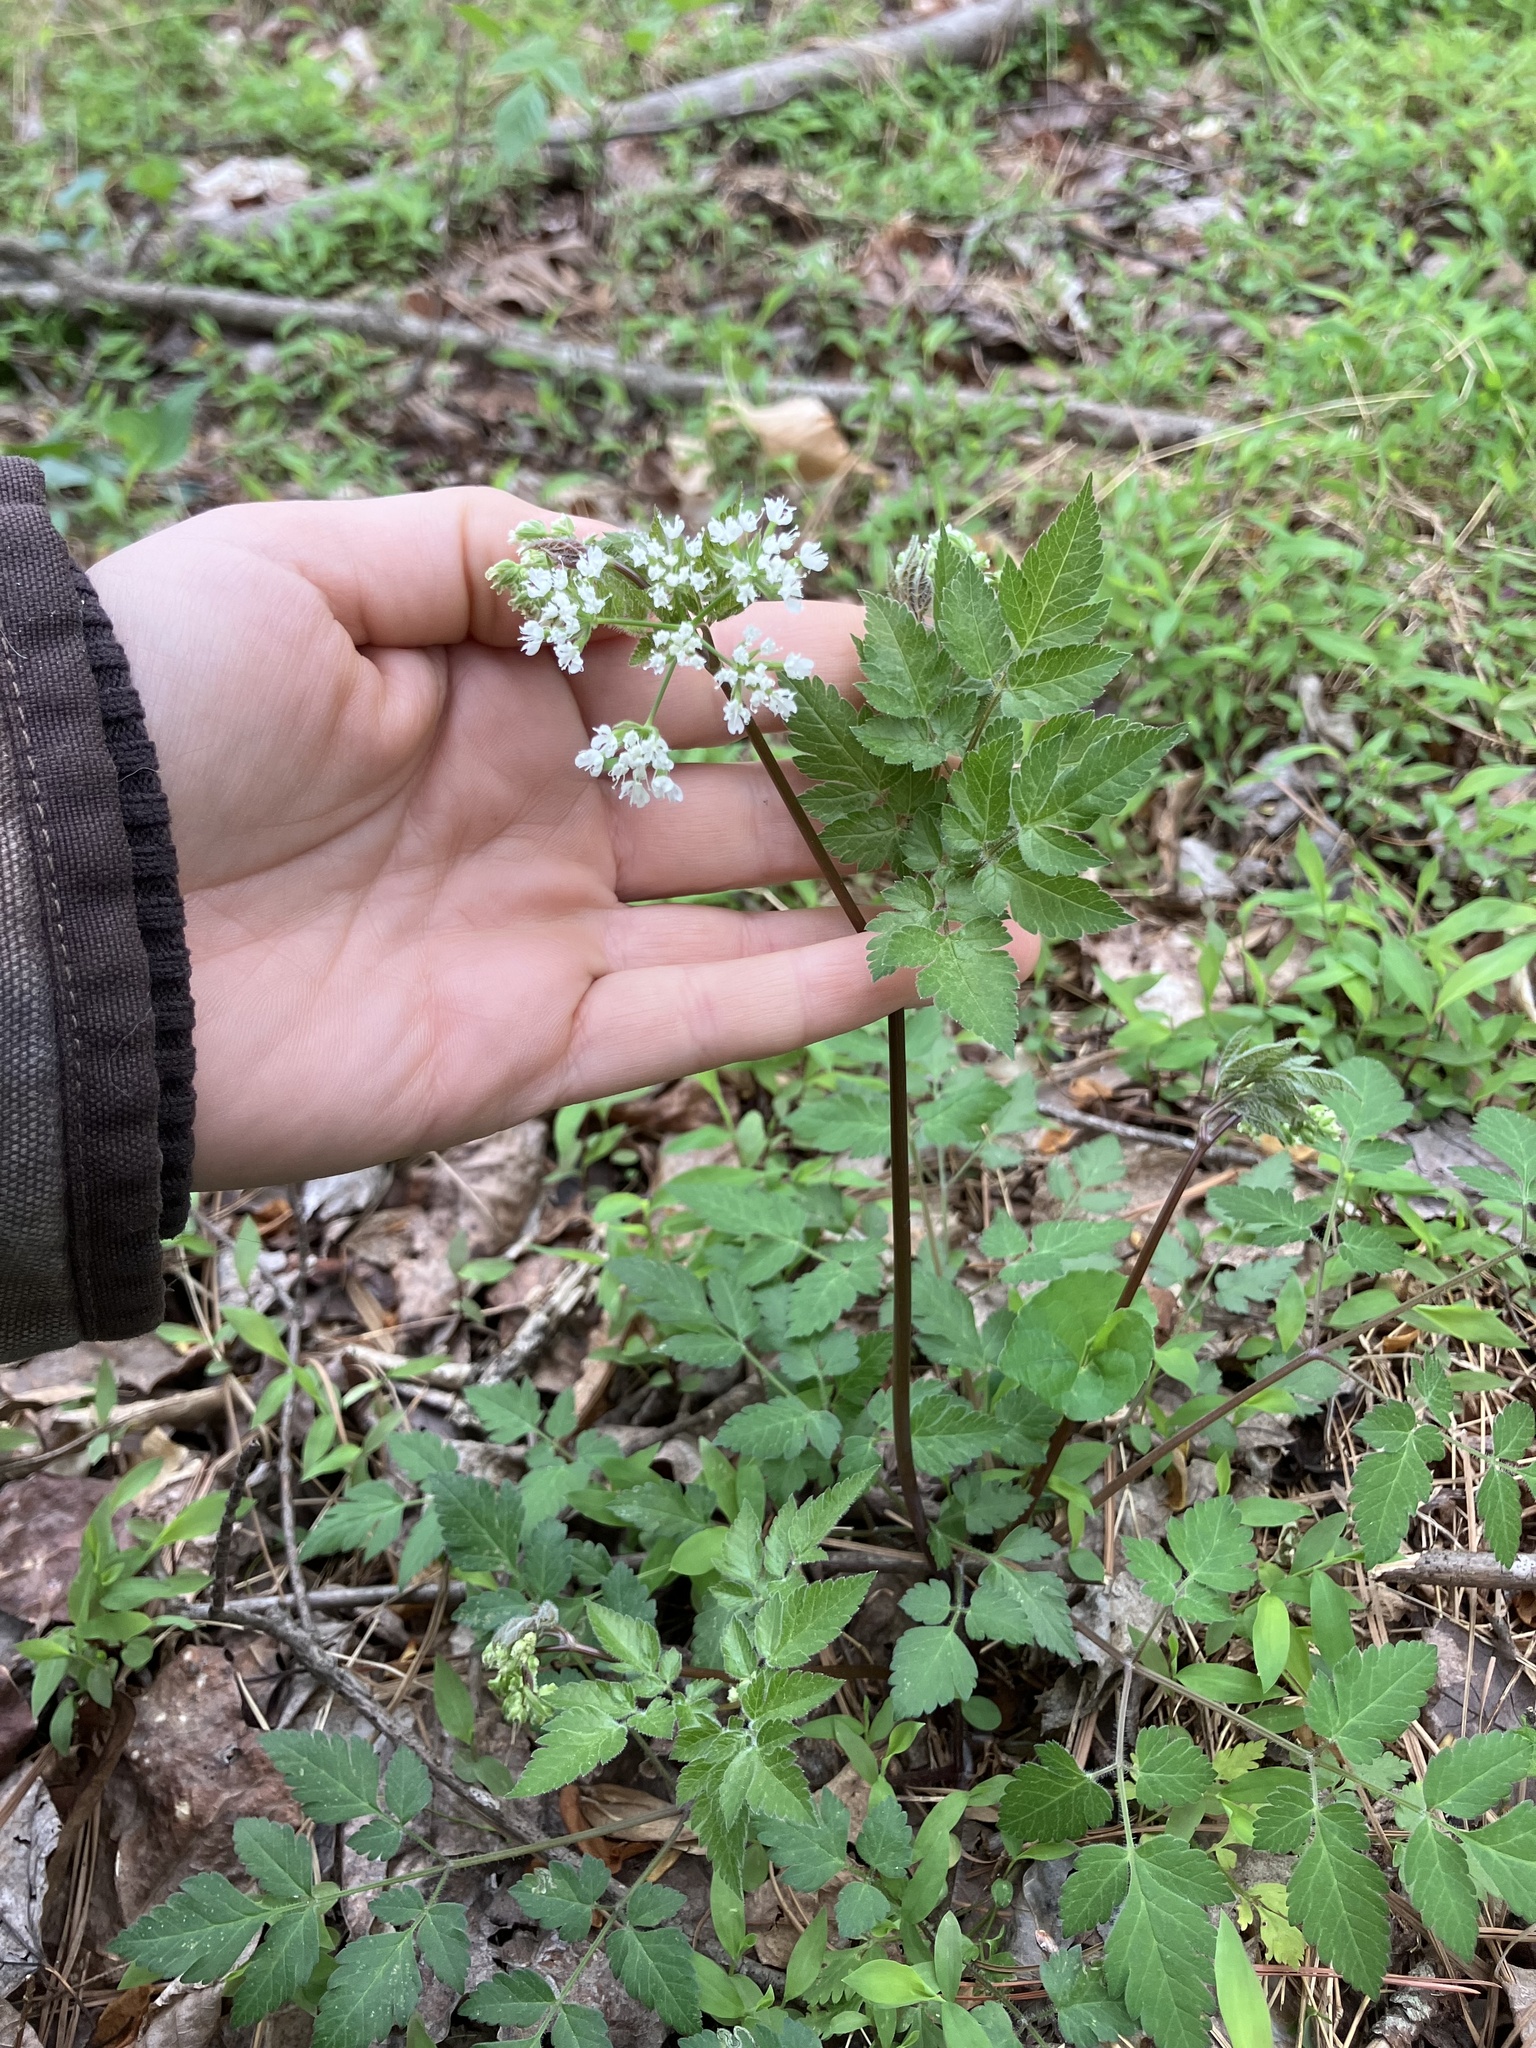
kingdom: Plantae
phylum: Tracheophyta
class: Magnoliopsida
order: Apiales
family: Apiaceae
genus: Osmorhiza
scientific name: Osmorhiza longistylis
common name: Smooth sweet cicely
